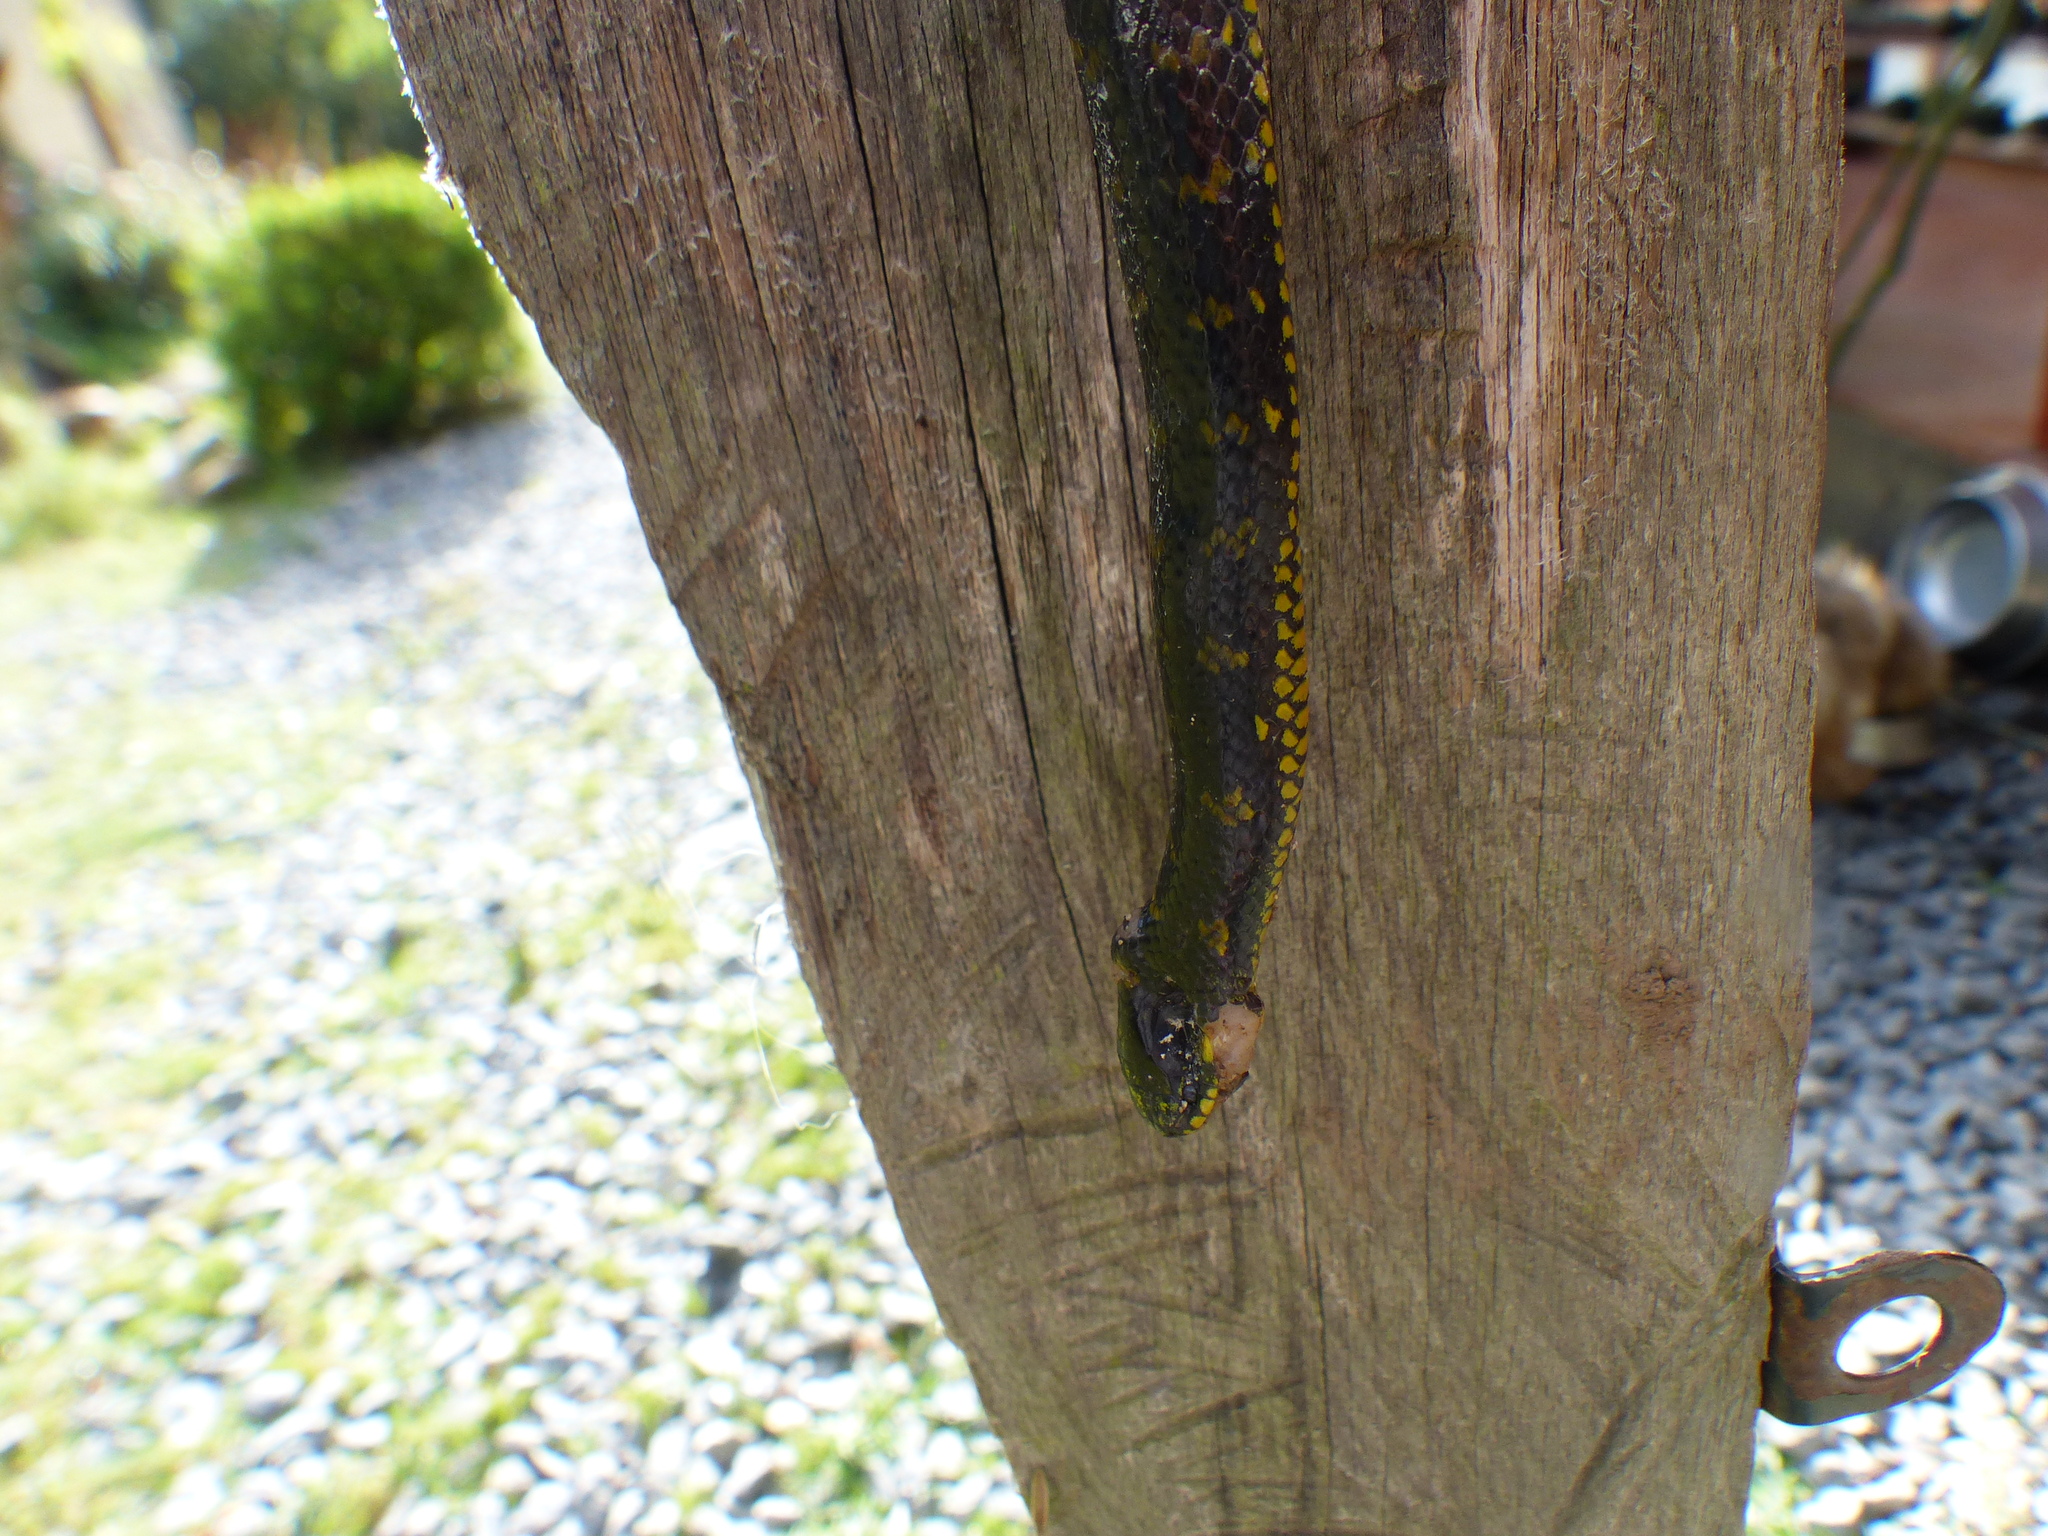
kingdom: Animalia
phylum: Chordata
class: Squamata
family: Colubridae
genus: Atractus
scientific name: Atractus crassicaudatus
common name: Thickhead ground snake
